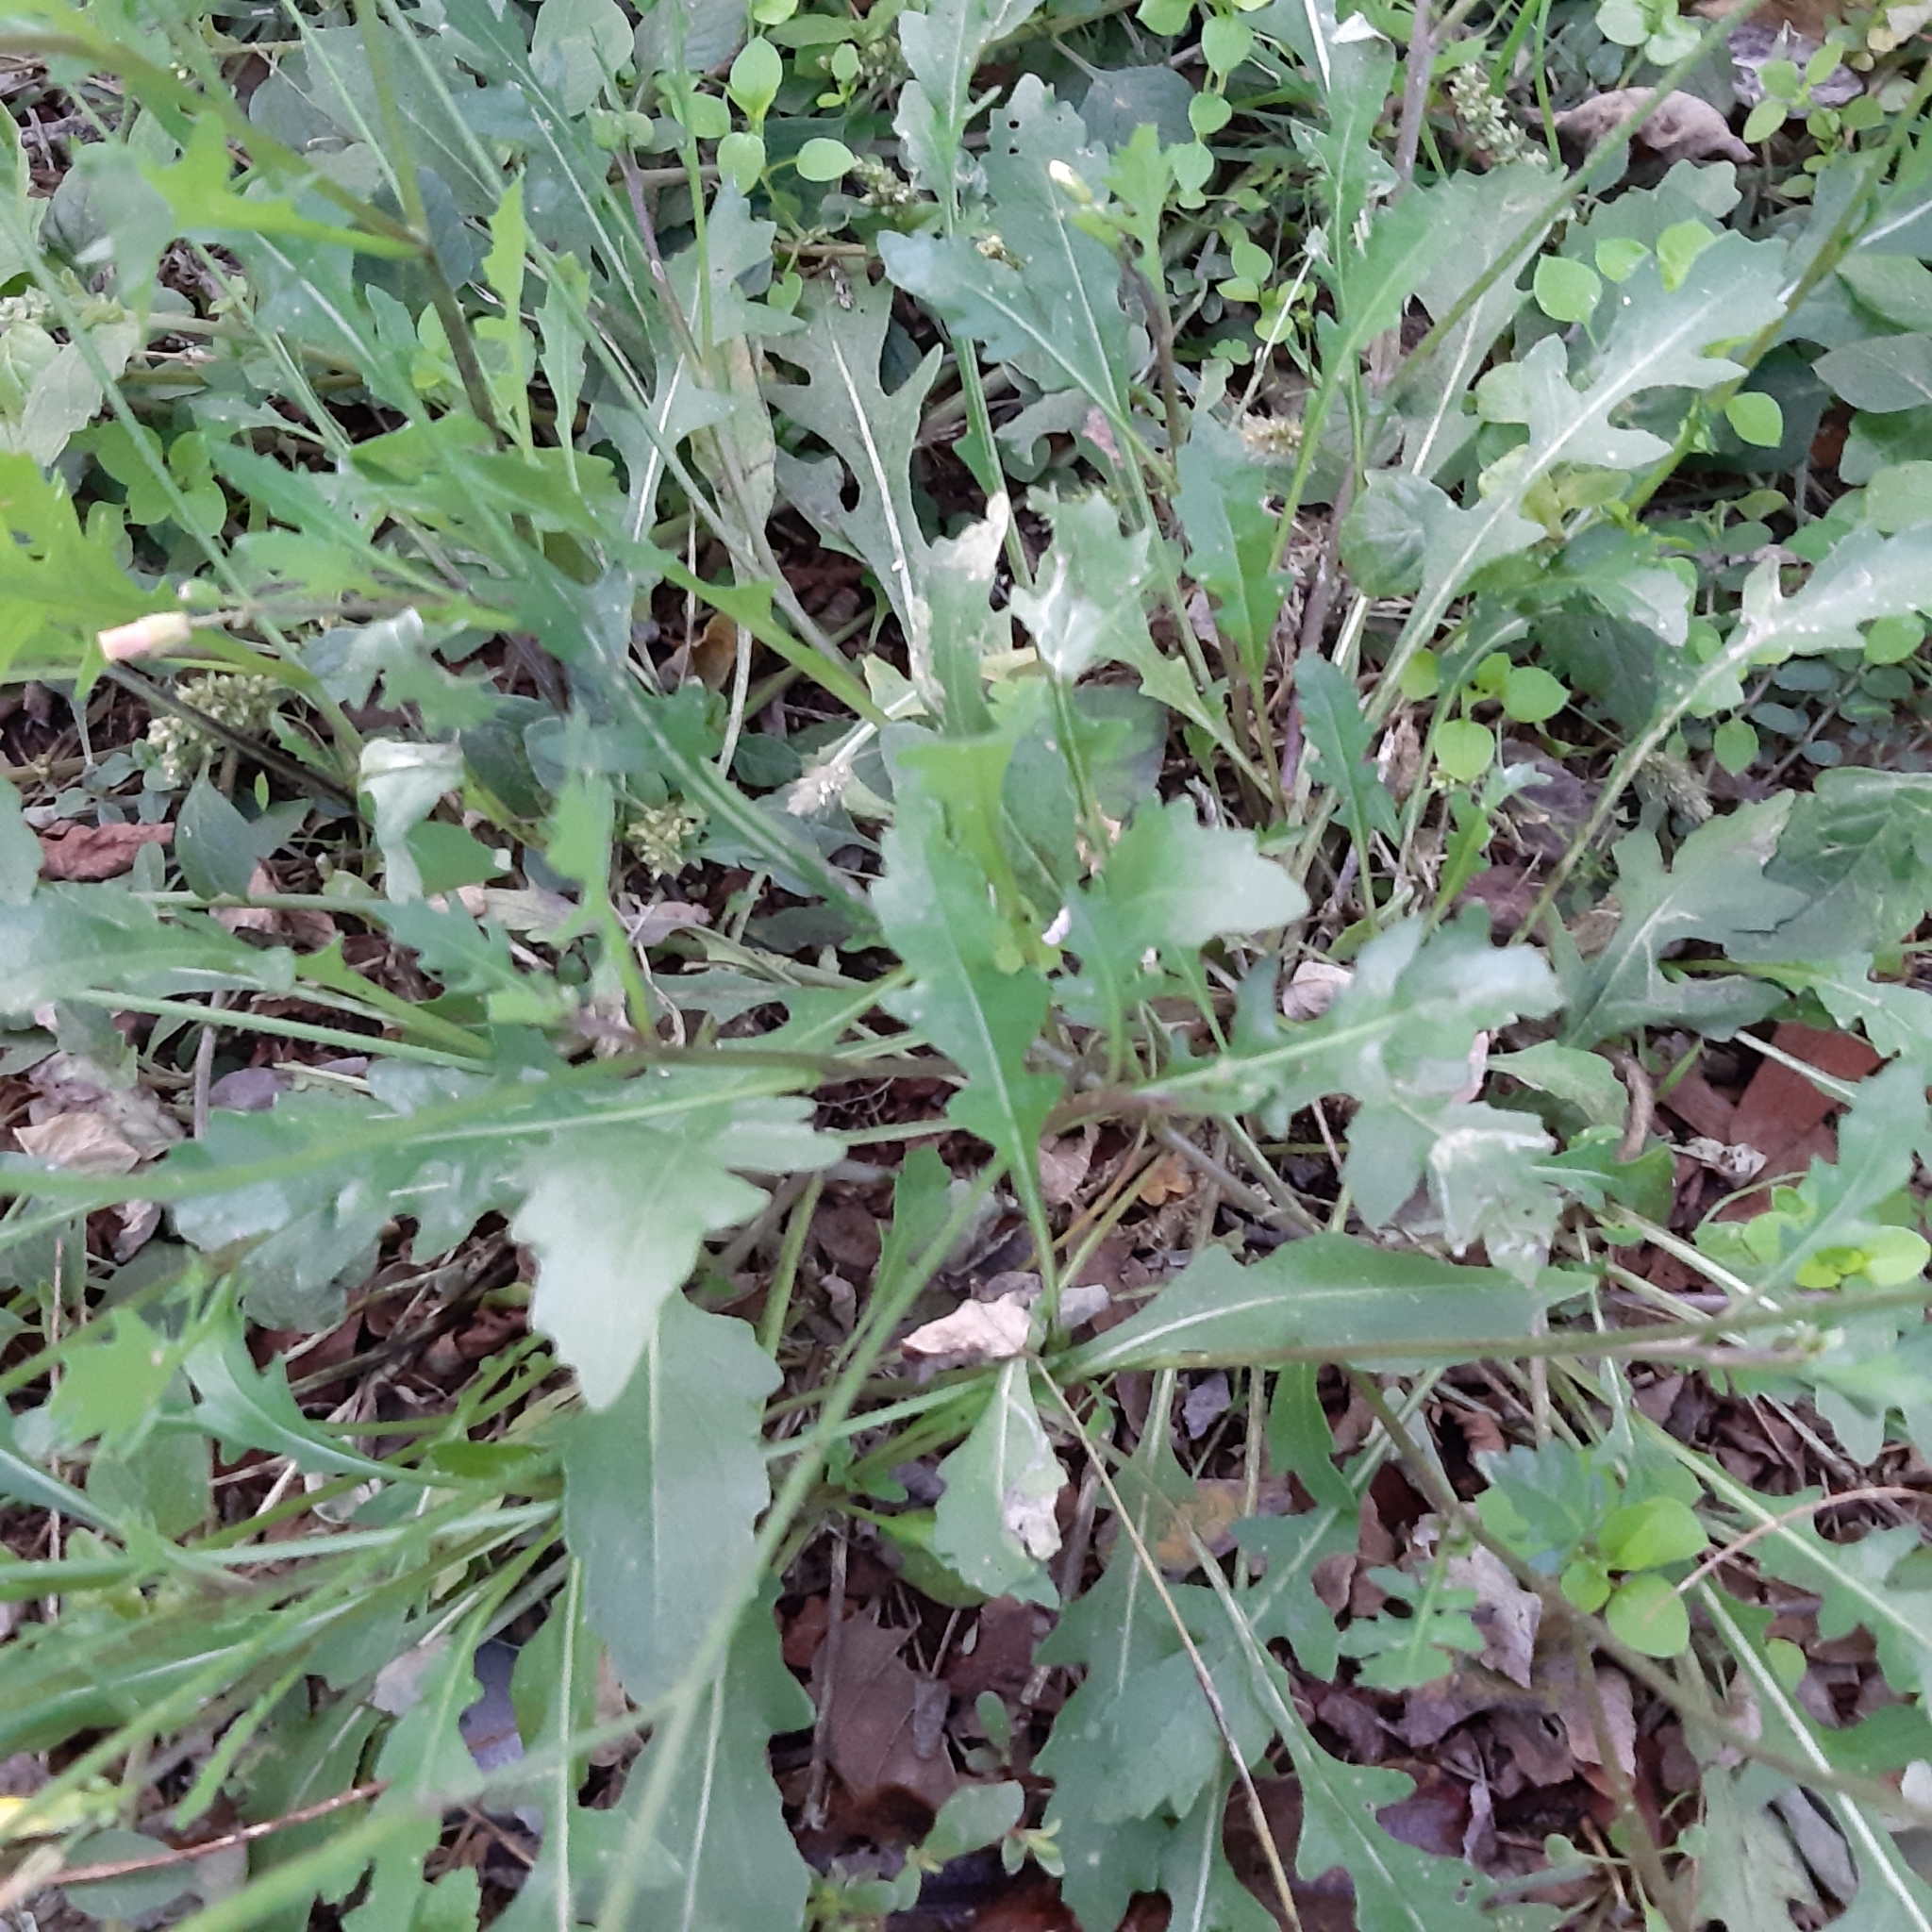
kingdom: Plantae
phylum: Tracheophyta
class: Magnoliopsida
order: Brassicales
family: Brassicaceae
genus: Diplotaxis
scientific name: Diplotaxis tenuifolia
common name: Perennial wall-rocket
